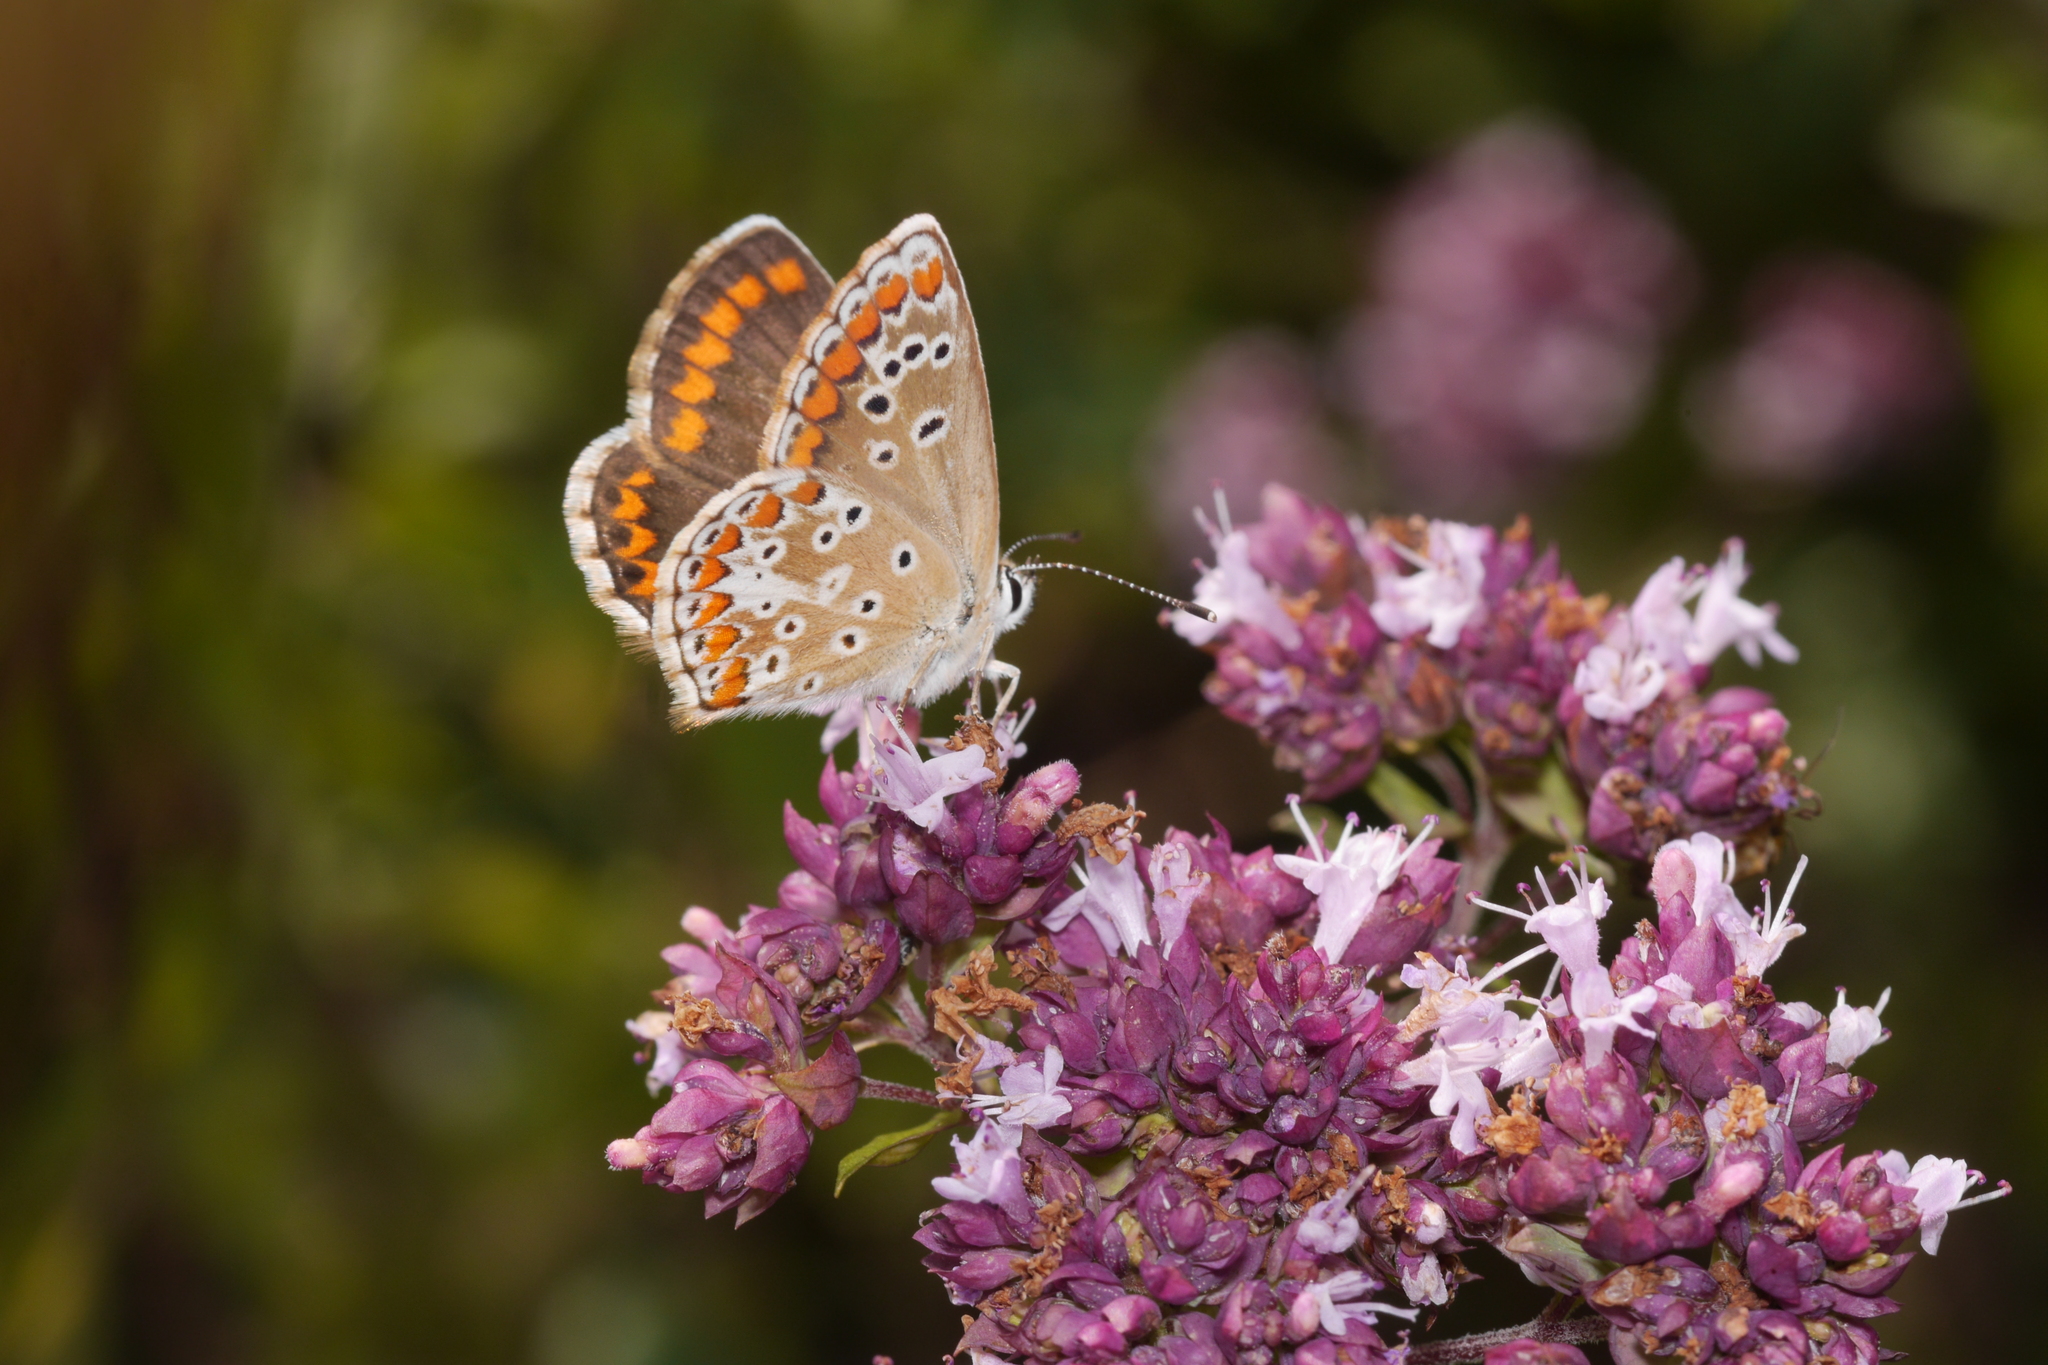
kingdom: Animalia
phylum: Arthropoda
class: Insecta
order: Lepidoptera
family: Lycaenidae
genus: Aricia
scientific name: Aricia agestis
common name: Brown argus
